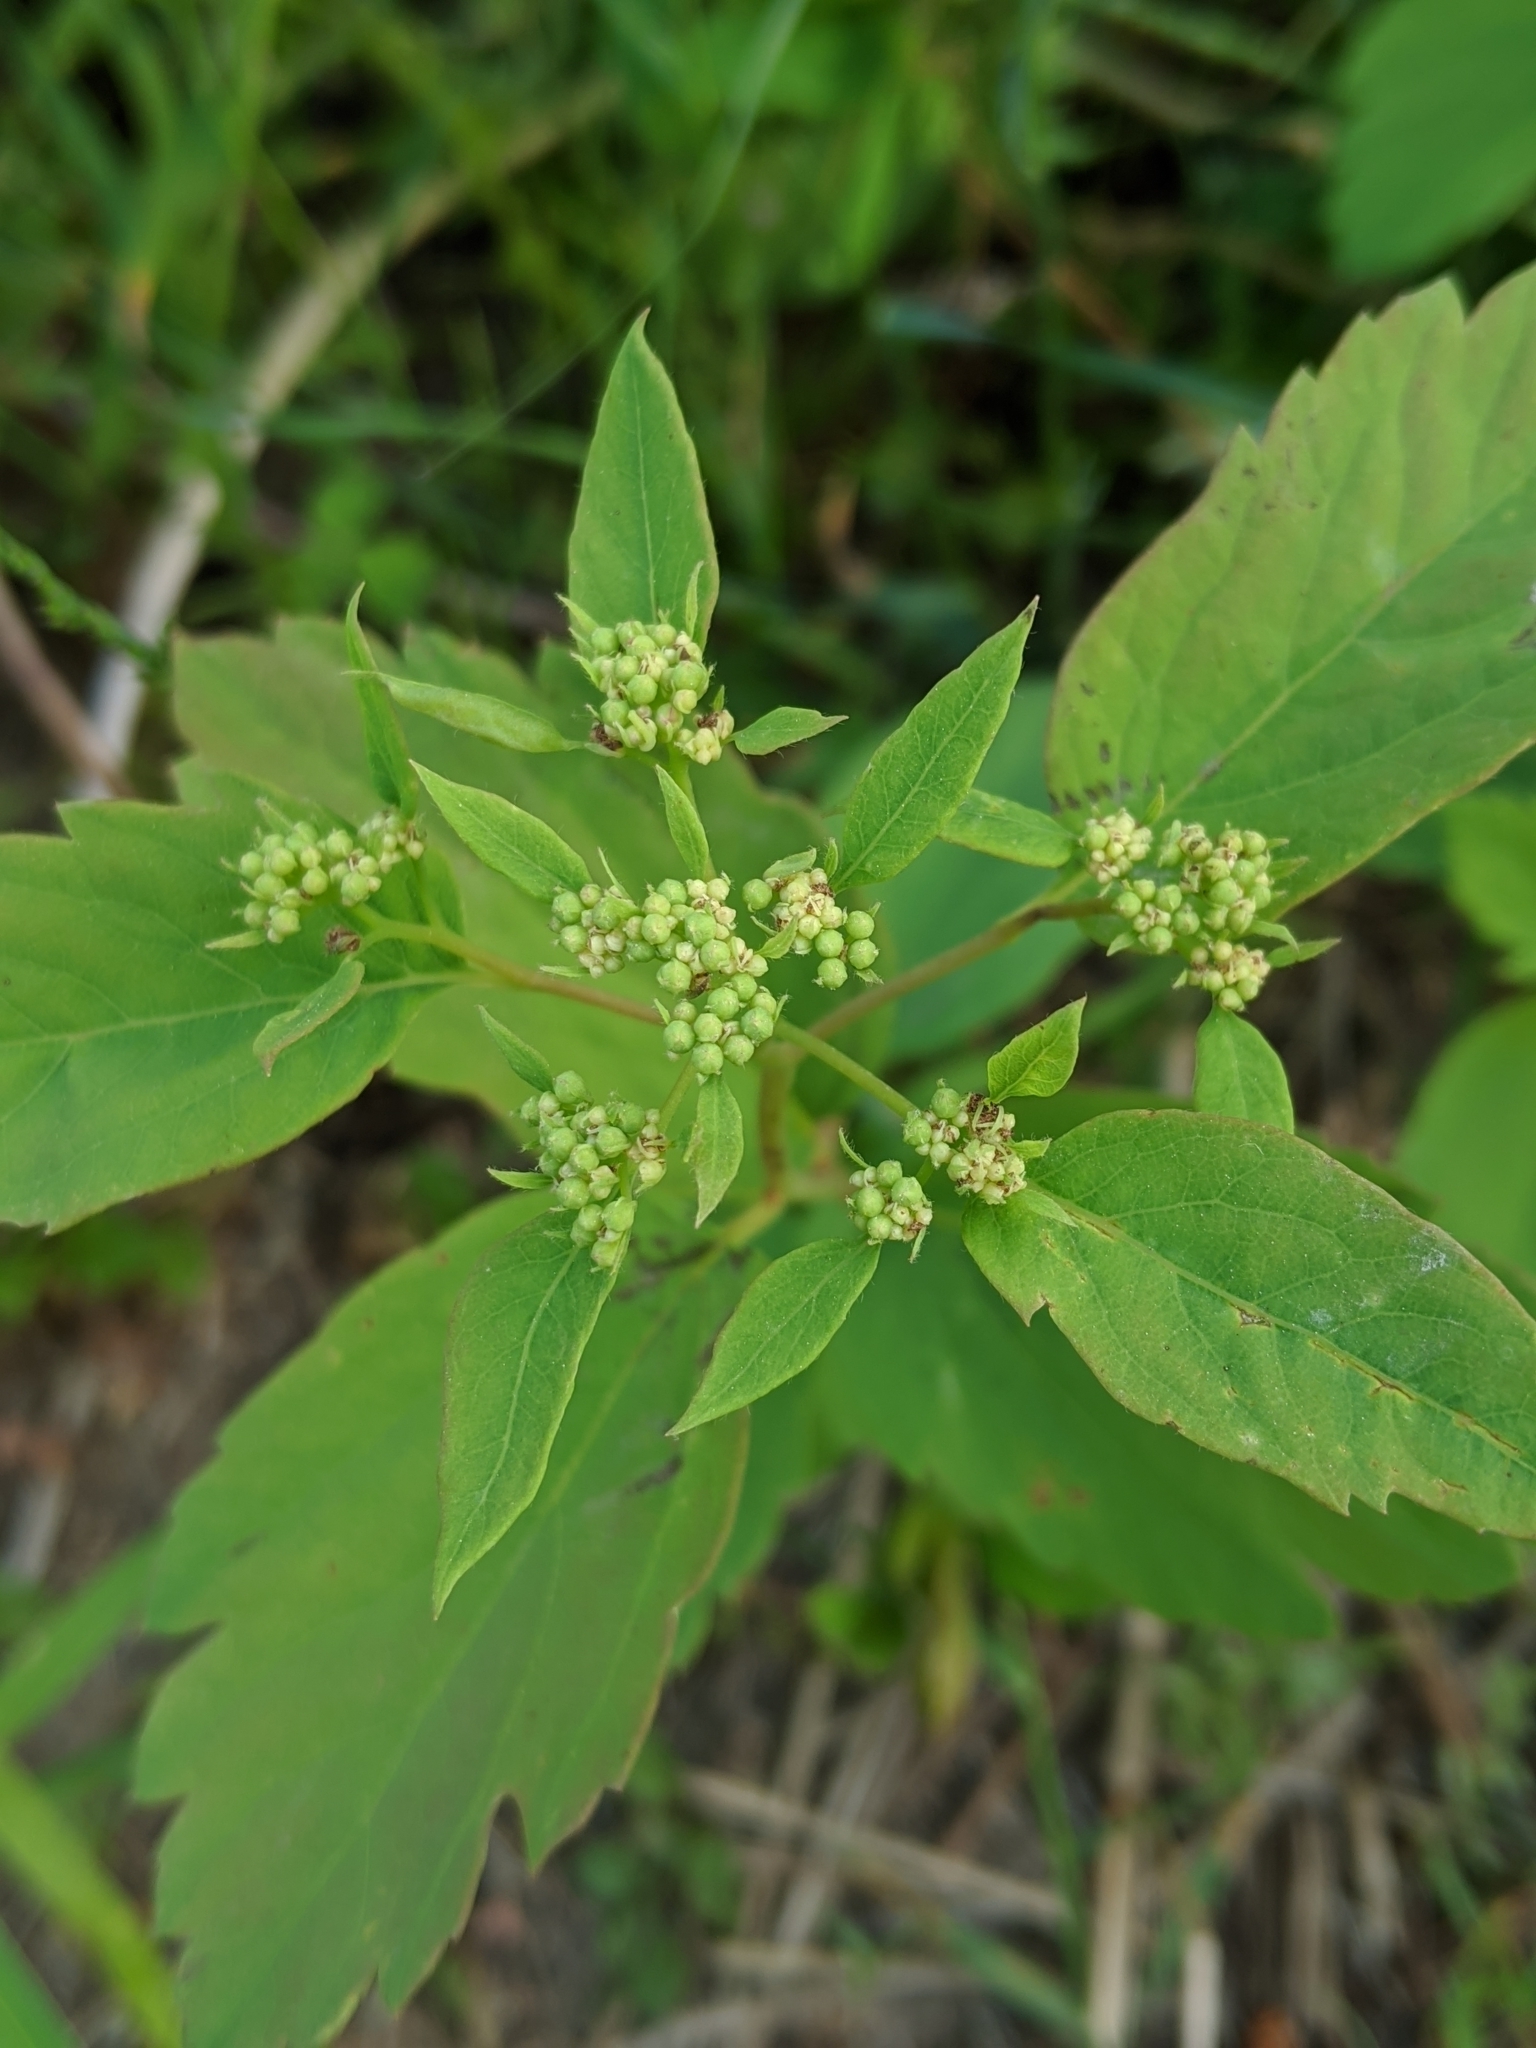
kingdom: Plantae
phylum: Tracheophyta
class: Magnoliopsida
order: Rosales
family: Rosaceae
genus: Spiraea
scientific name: Spiraea lucida
